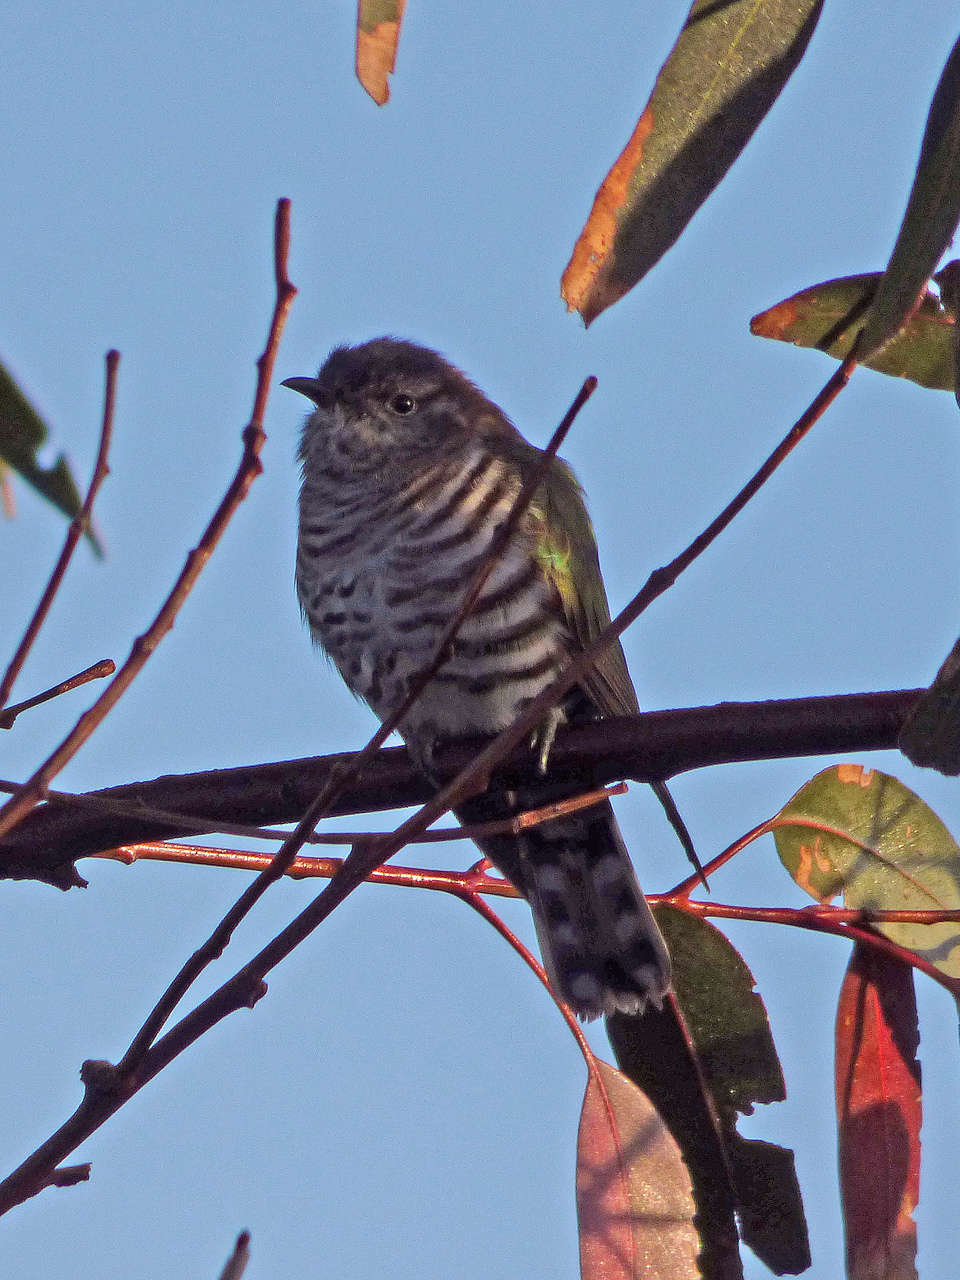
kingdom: Animalia
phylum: Chordata
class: Aves
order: Cuculiformes
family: Cuculidae
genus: Chrysococcyx
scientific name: Chrysococcyx lucidus
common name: Shining bronze cuckoo
